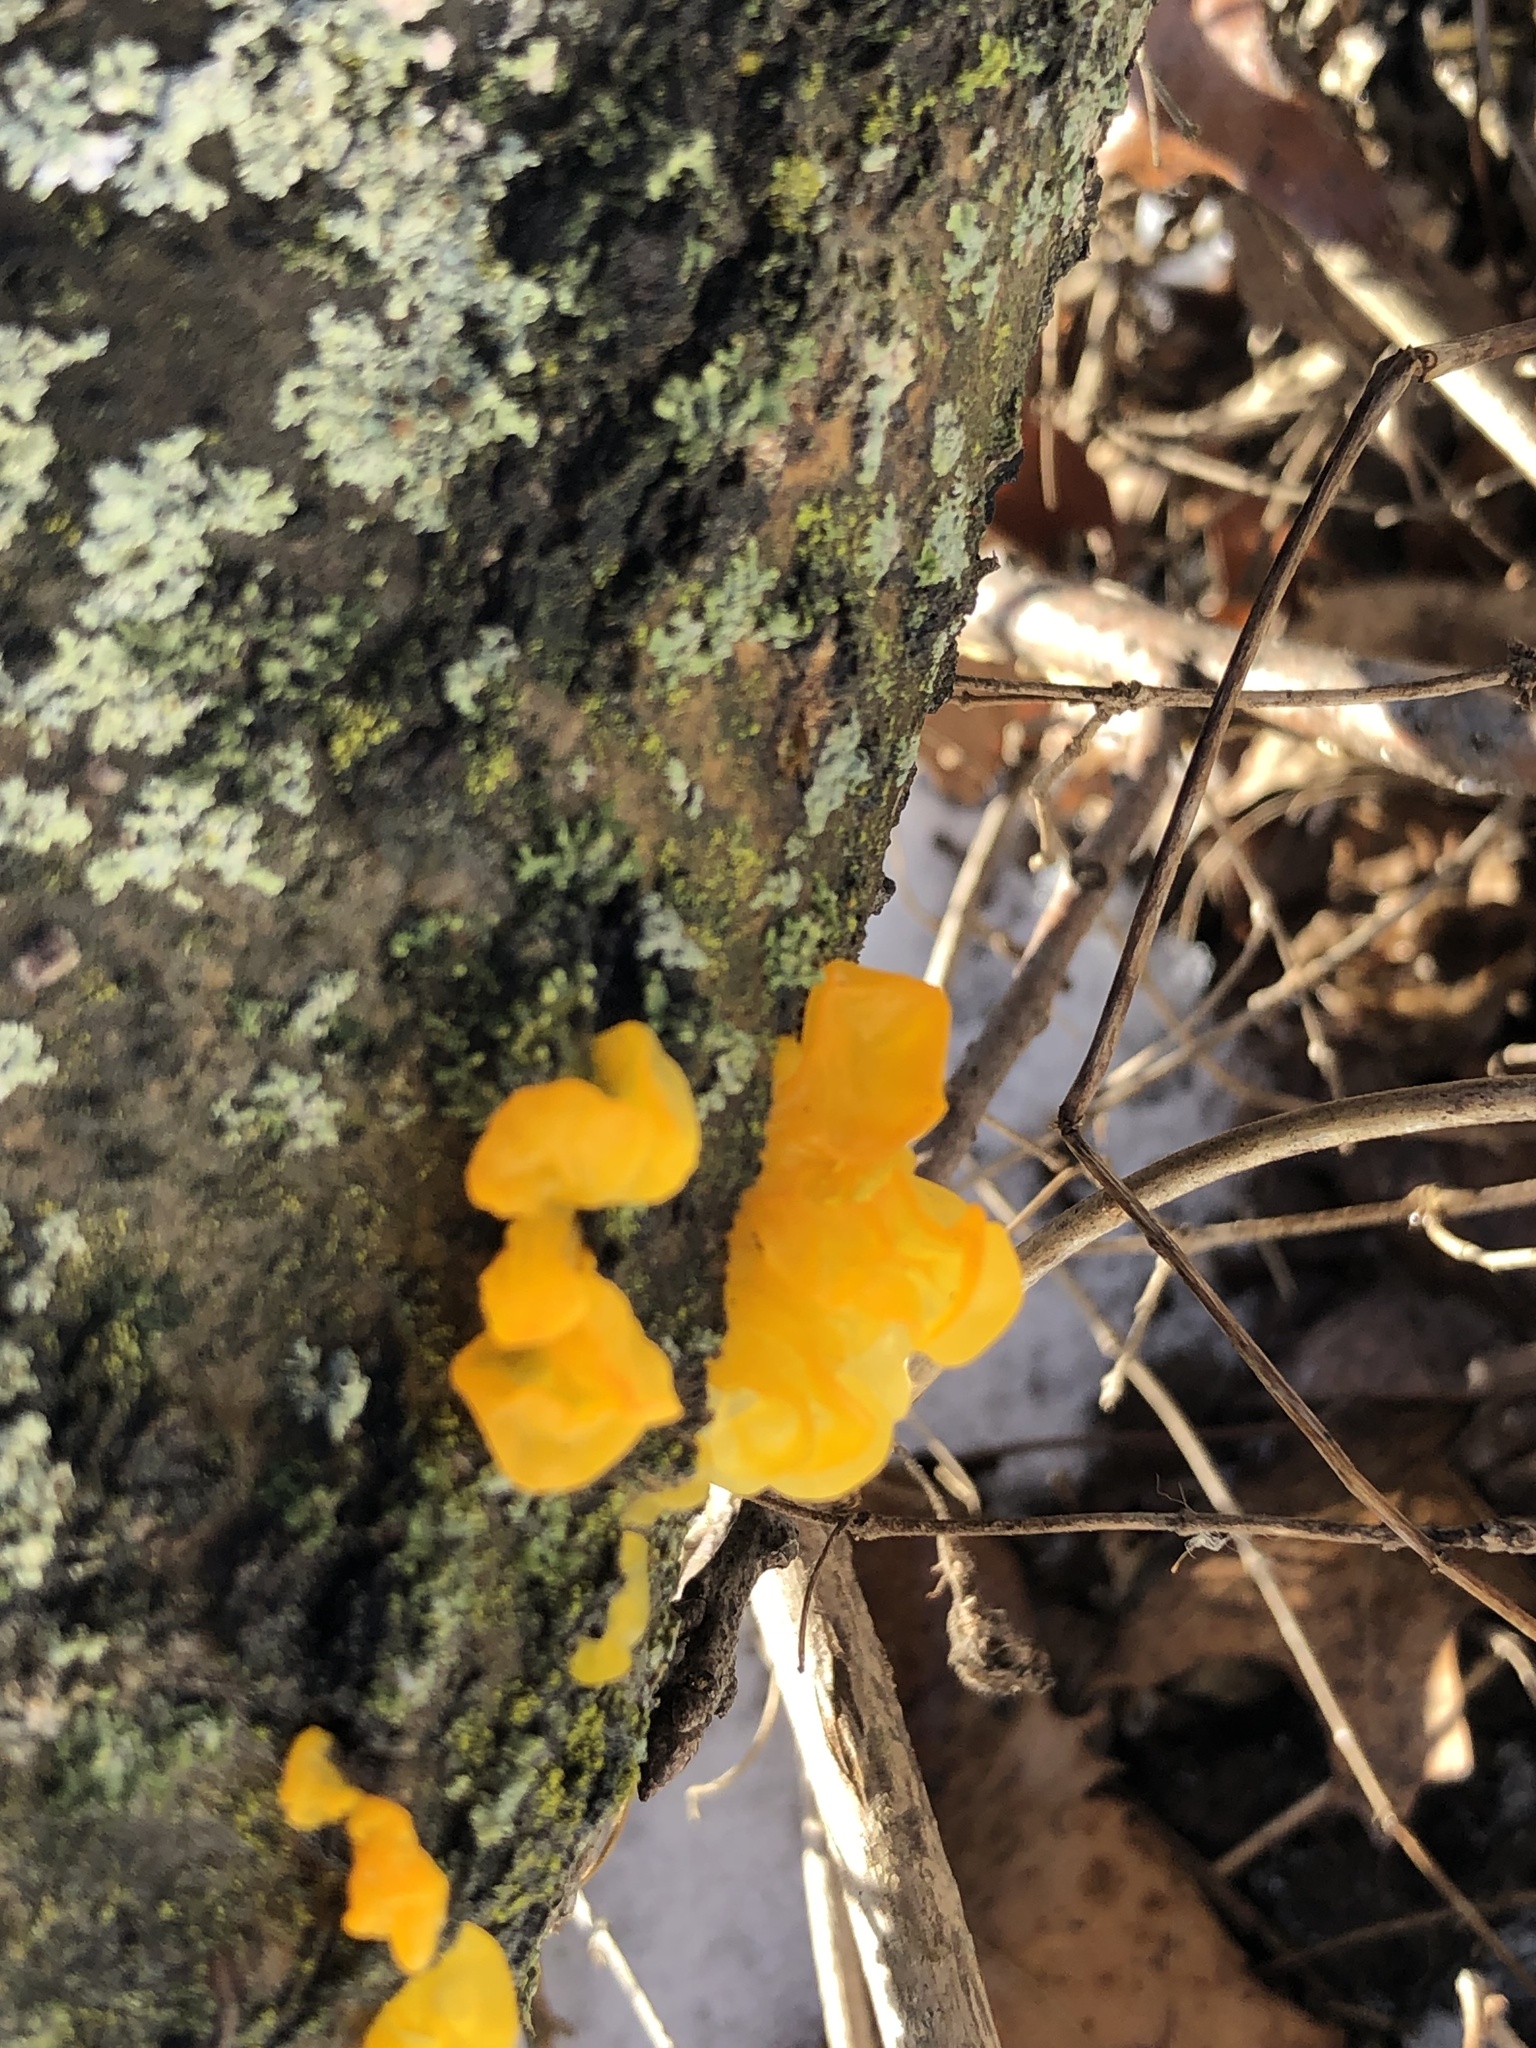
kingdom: Fungi
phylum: Basidiomycota
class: Tremellomycetes
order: Tremellales
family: Tremellaceae
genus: Tremella
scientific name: Tremella mesenterica
